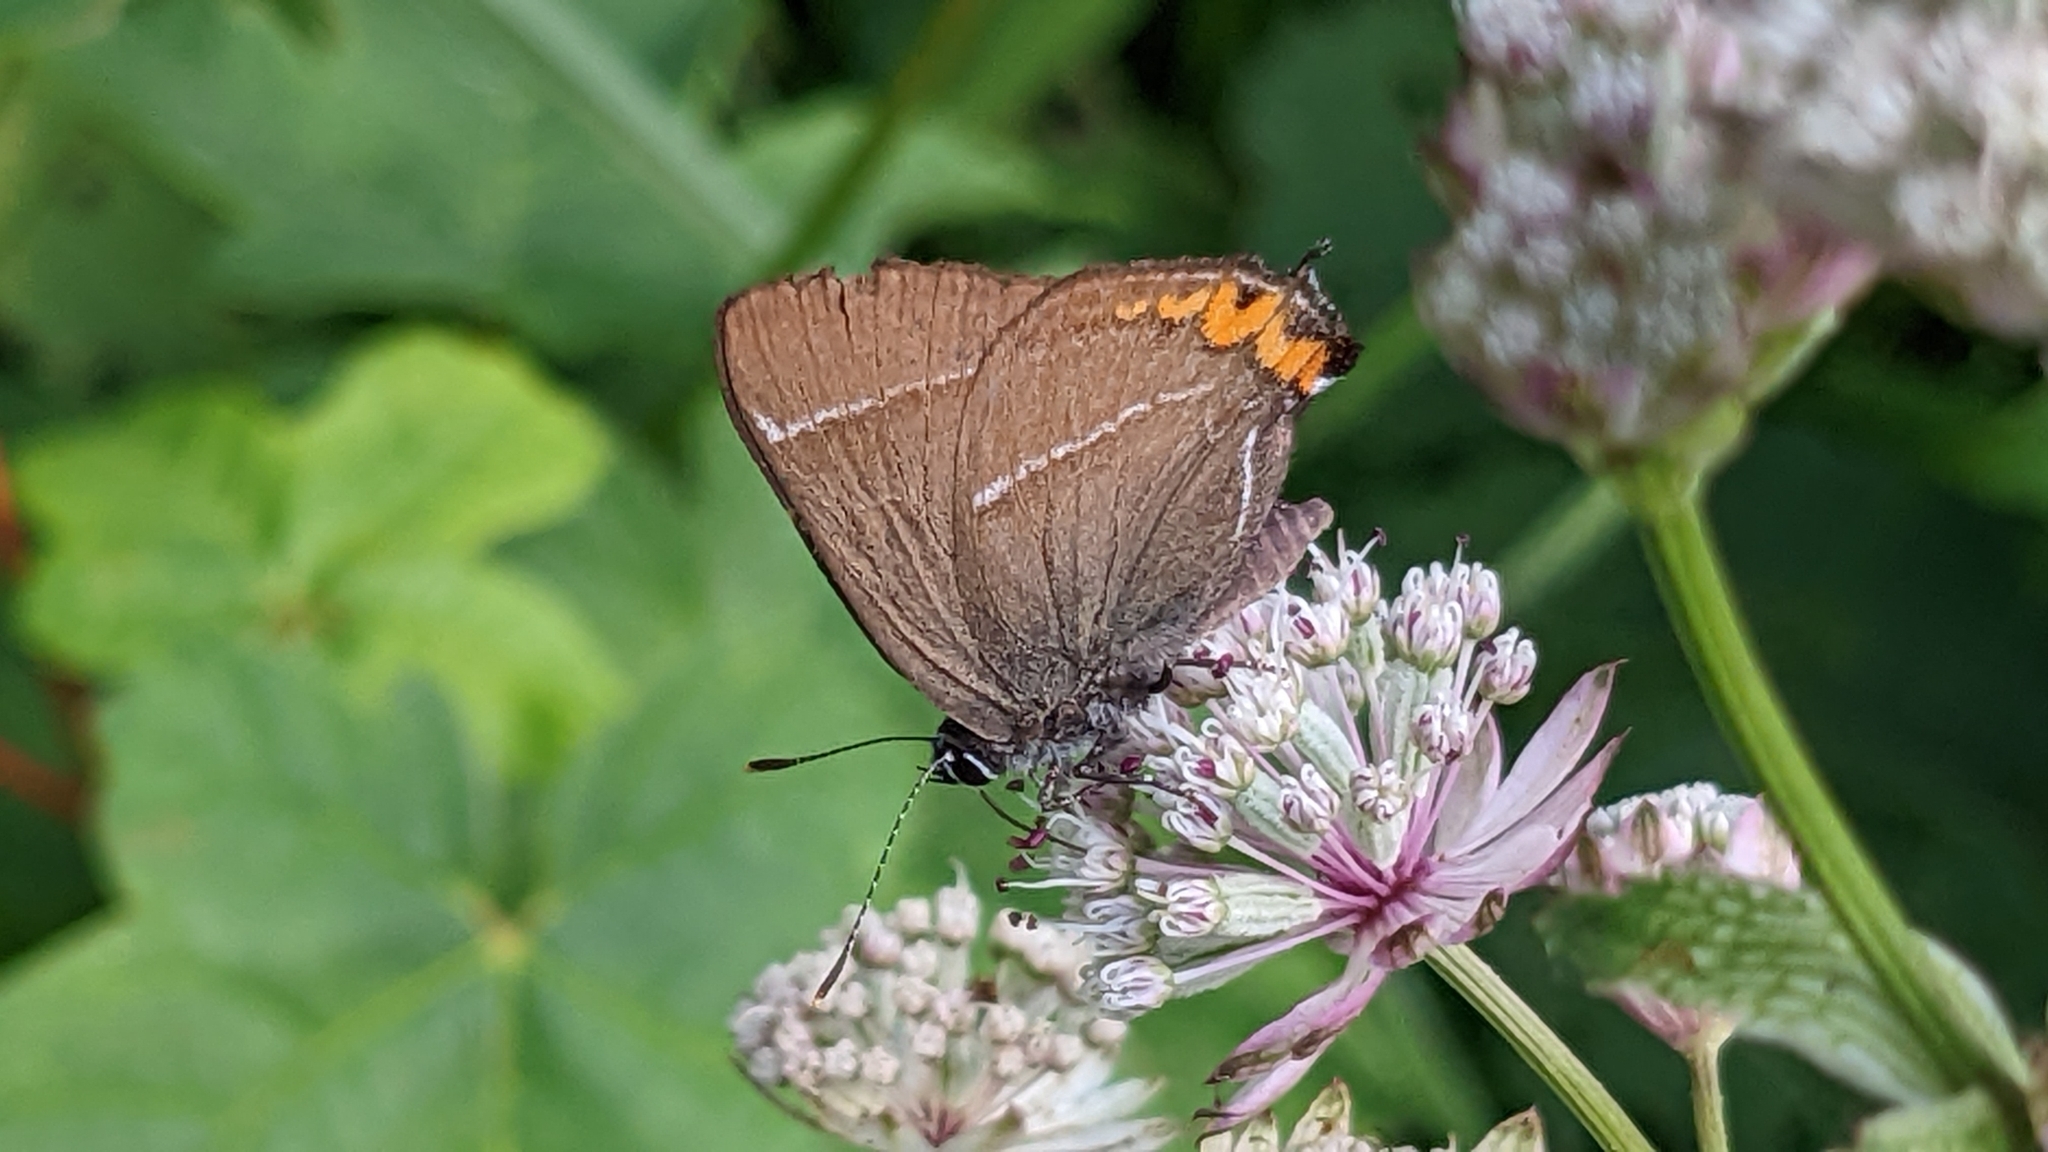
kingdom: Animalia
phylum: Arthropoda
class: Insecta
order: Lepidoptera
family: Lycaenidae
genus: Satyrium
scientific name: Satyrium w-album
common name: White-letter hairstreak
